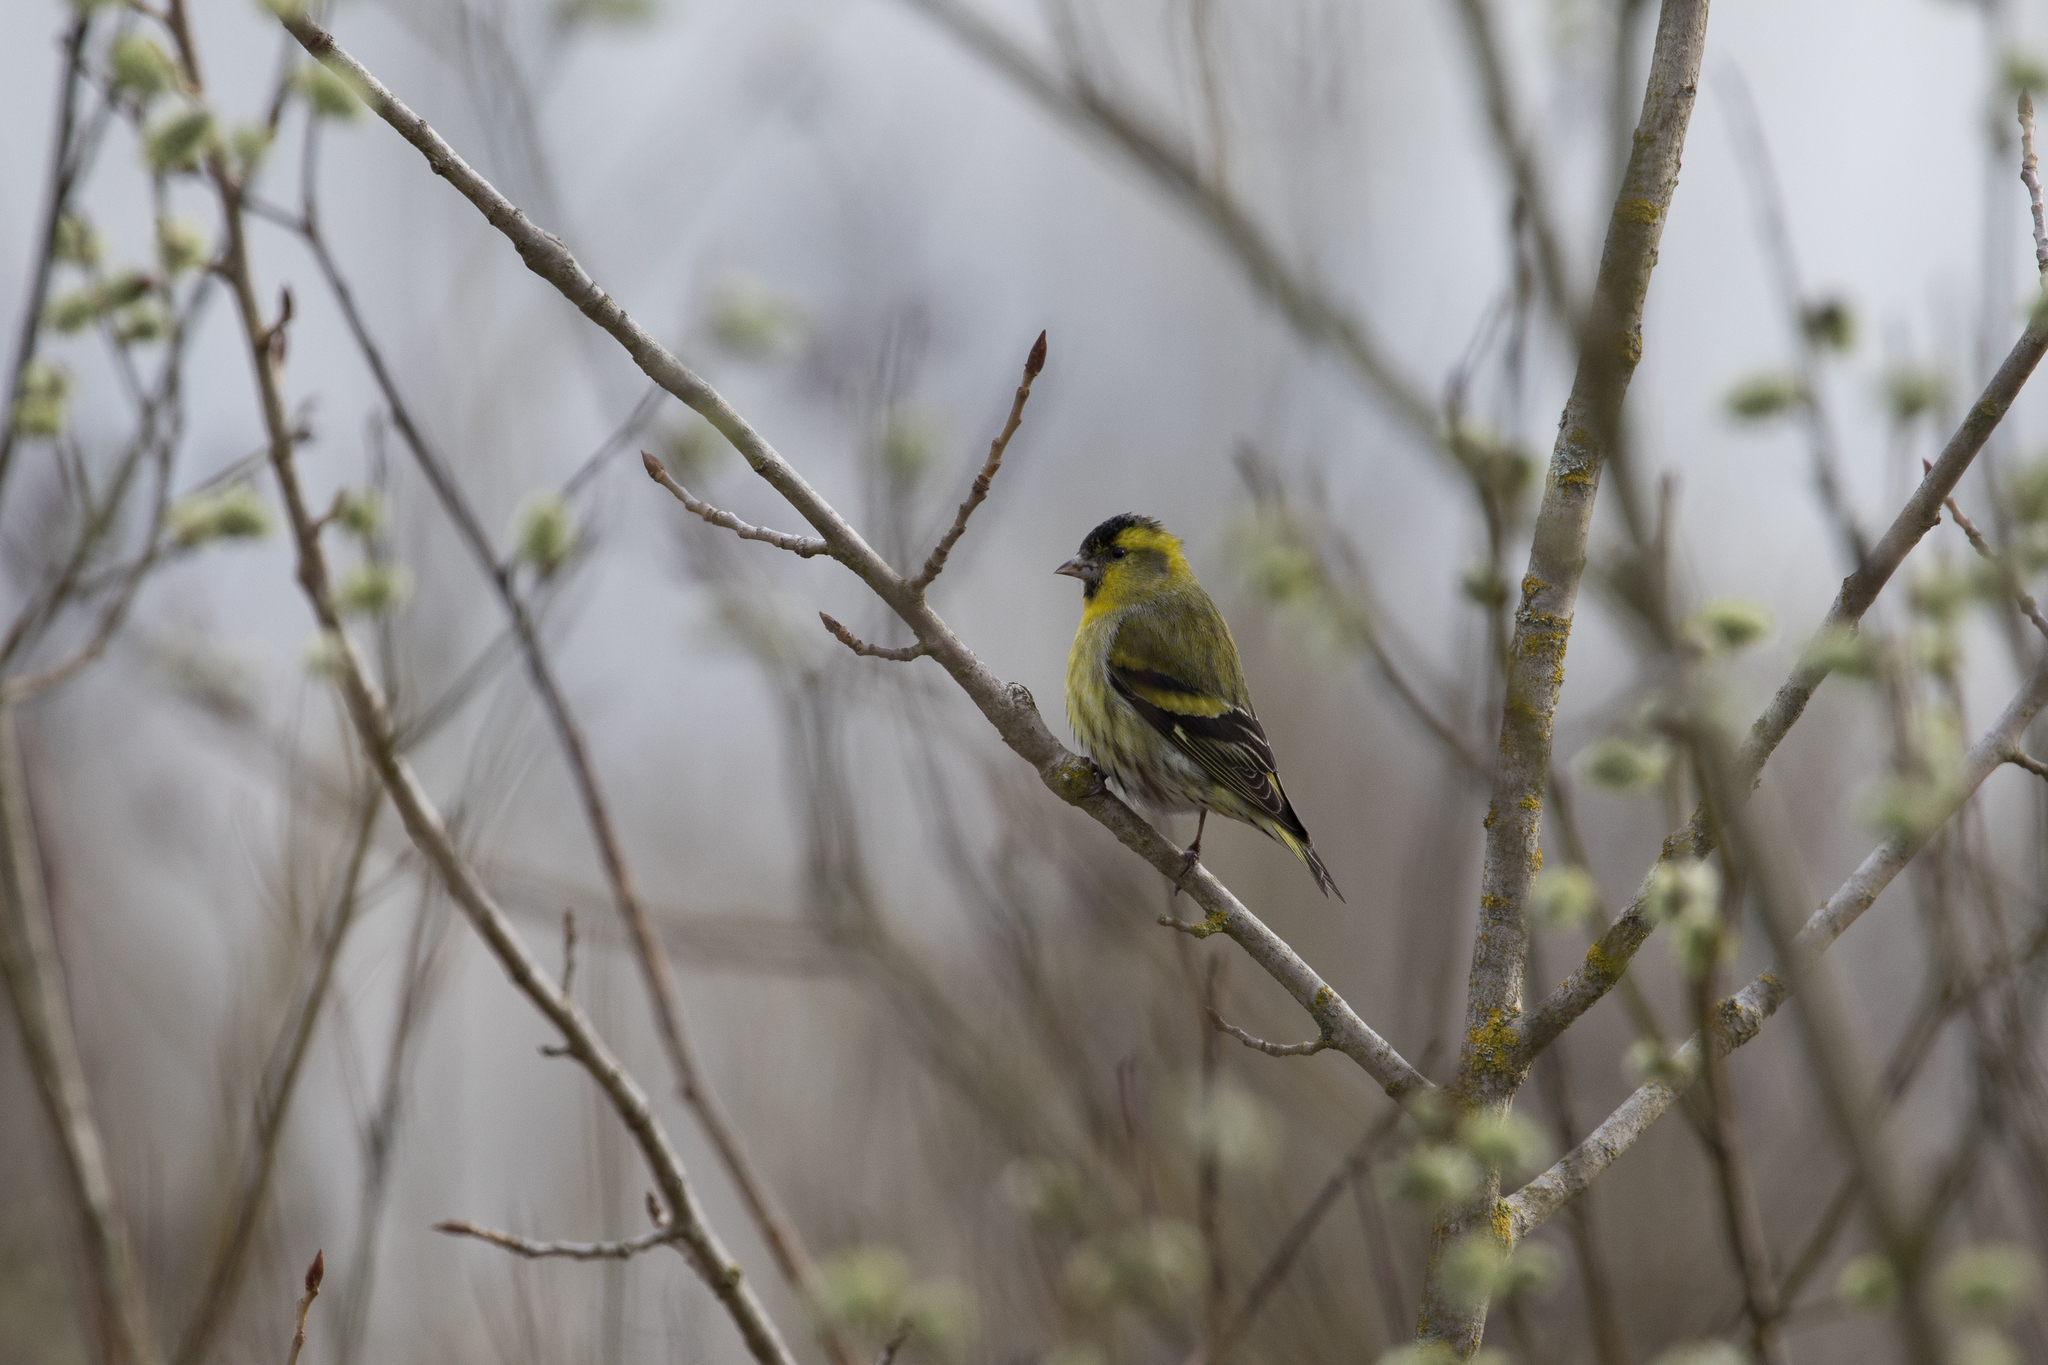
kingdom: Animalia
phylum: Chordata
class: Aves
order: Passeriformes
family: Fringillidae
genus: Spinus
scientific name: Spinus spinus
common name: Eurasian siskin
